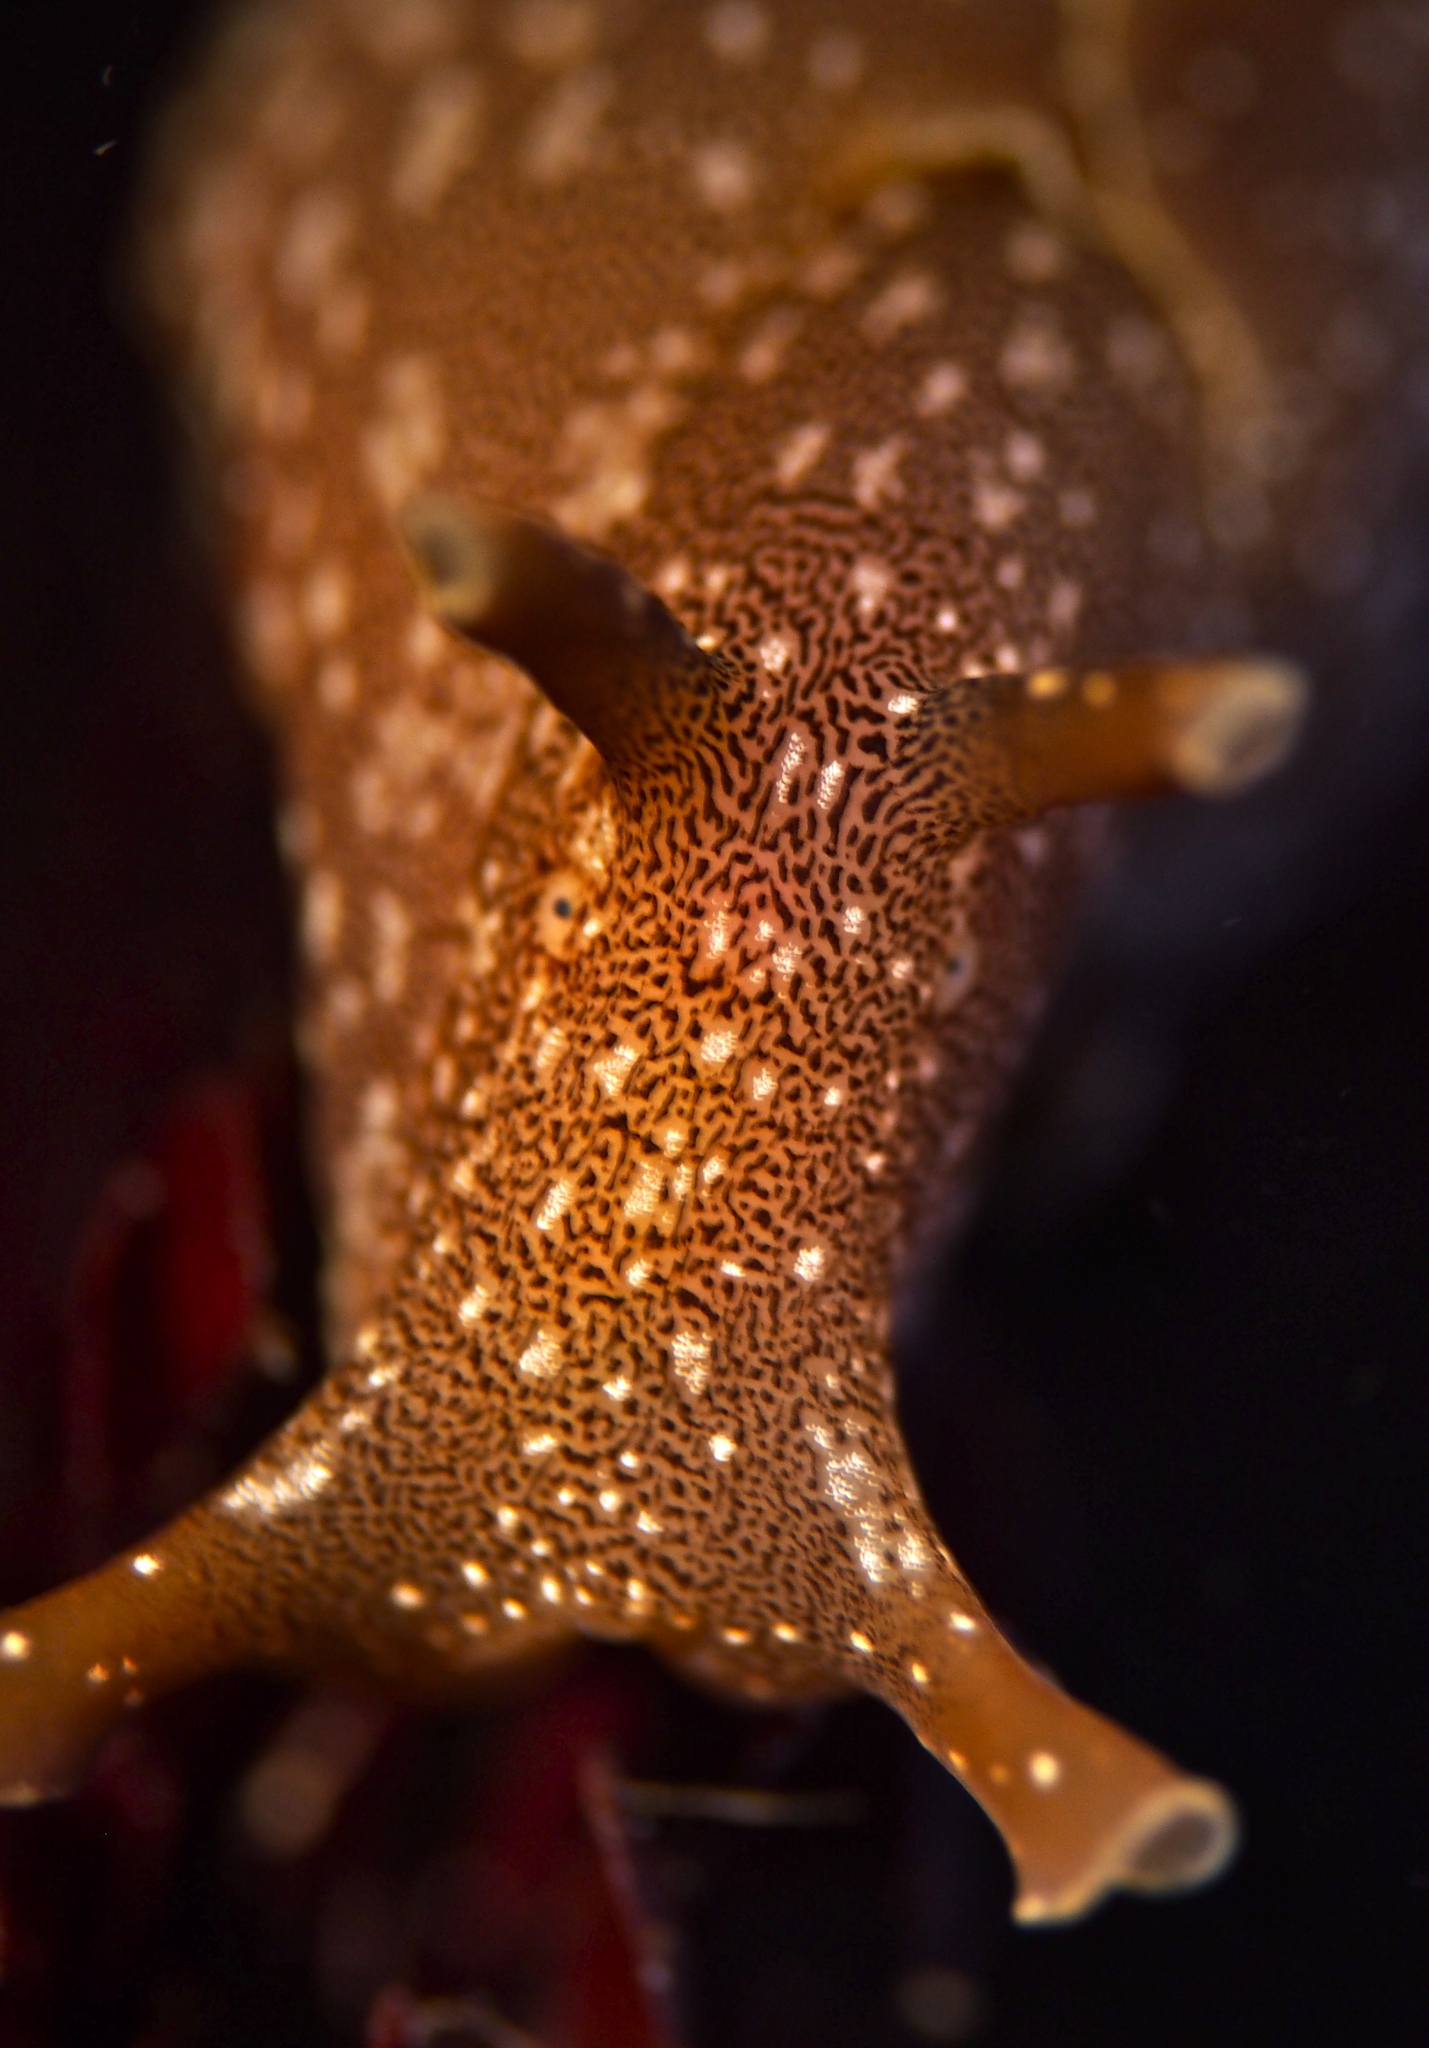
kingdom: Animalia
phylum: Mollusca
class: Gastropoda
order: Aplysiida
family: Aplysiidae
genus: Aplysia
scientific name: Aplysia punctata
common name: Common sea hare
